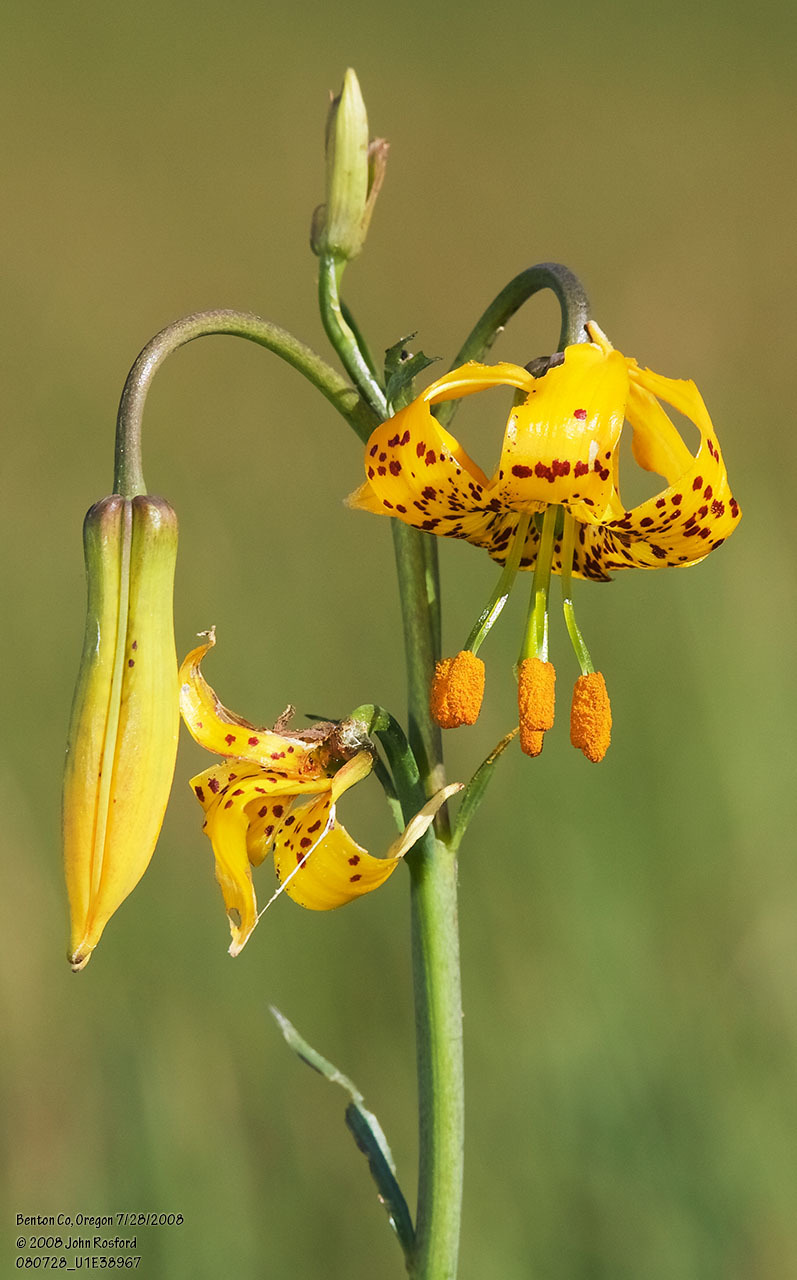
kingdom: Plantae
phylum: Tracheophyta
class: Liliopsida
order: Liliales
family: Liliaceae
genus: Lilium
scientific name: Lilium columbianum
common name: Columbia lily
